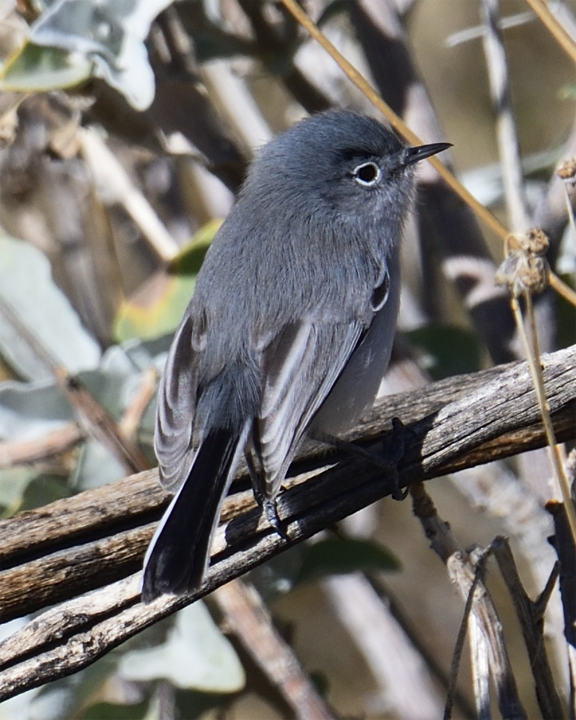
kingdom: Animalia
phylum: Chordata
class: Aves
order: Passeriformes
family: Polioptilidae
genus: Polioptila
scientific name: Polioptila melanura
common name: Black-tailed gnatcatcher
